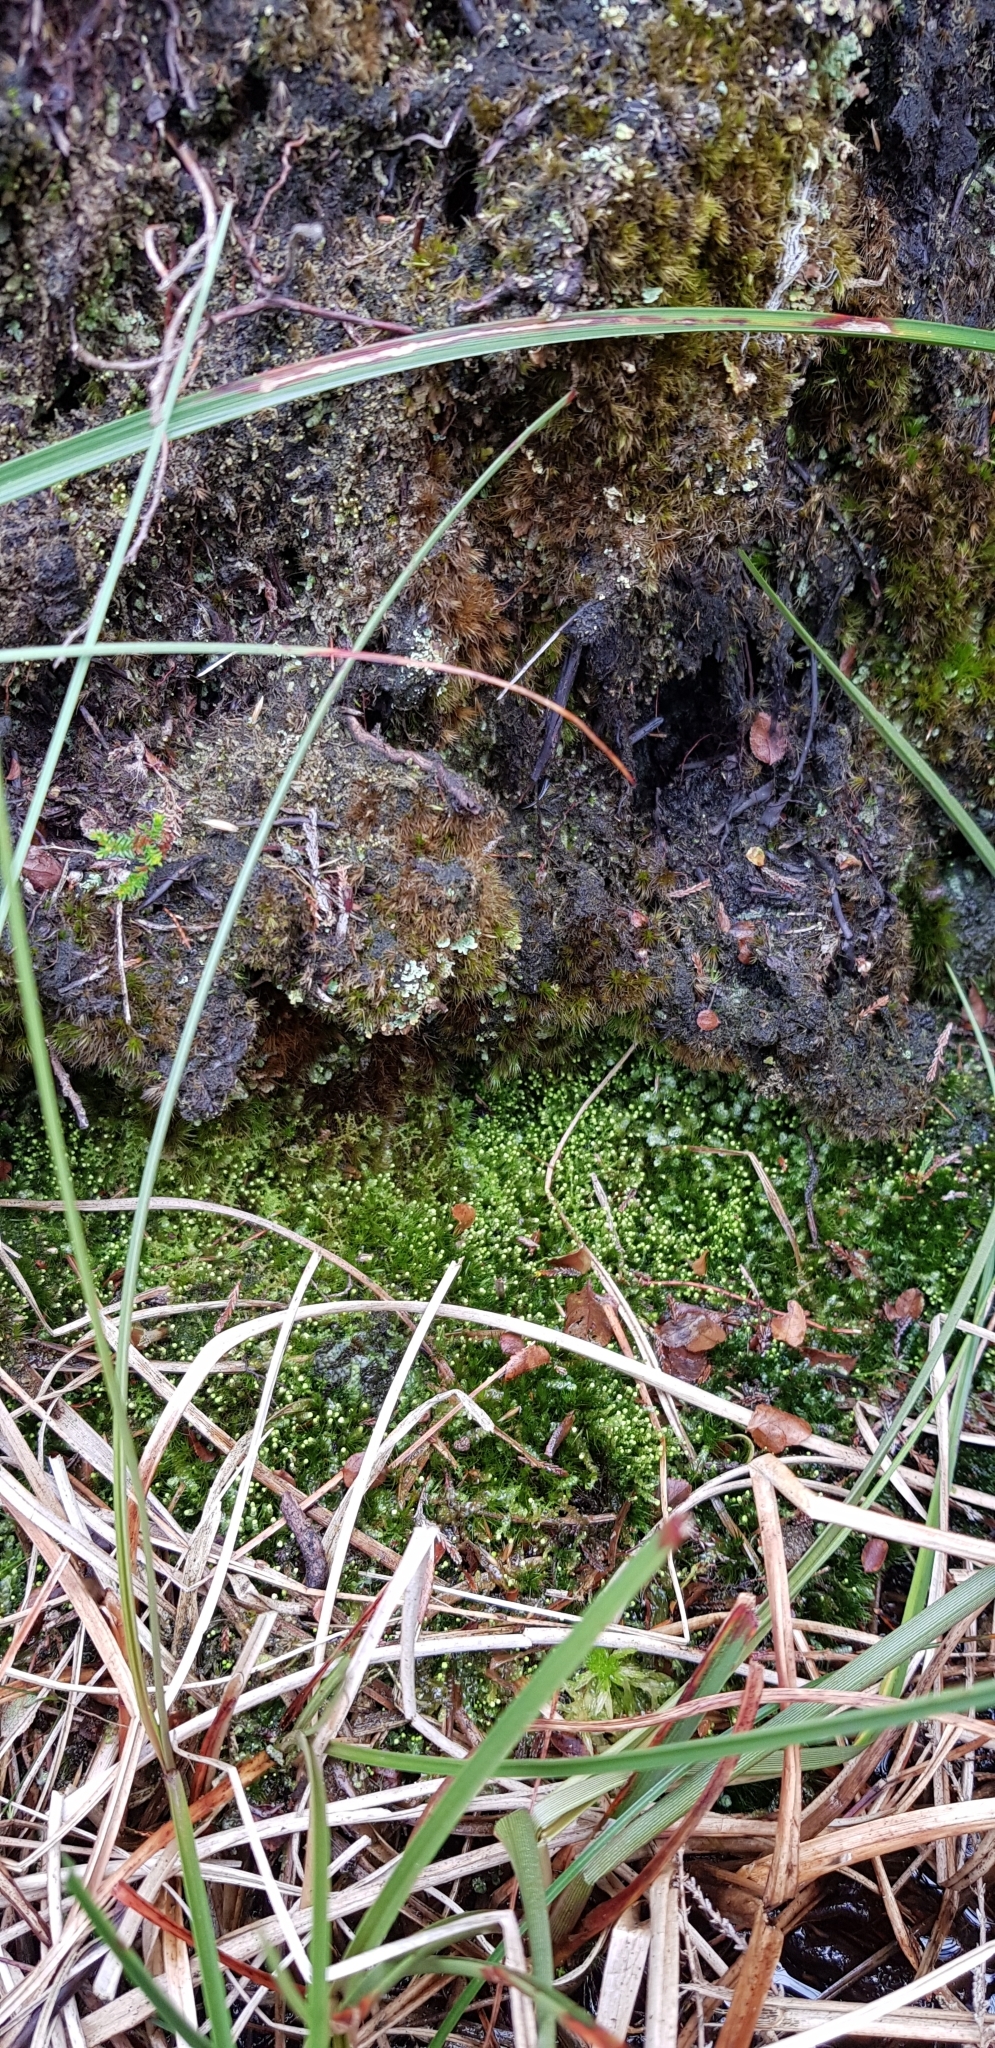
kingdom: Plantae
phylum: Marchantiophyta
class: Jungermanniopsida
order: Jungermanniales
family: Calypogeiaceae
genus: Calypogeia
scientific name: Calypogeia muelleriana
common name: Mueller s pouchwort
